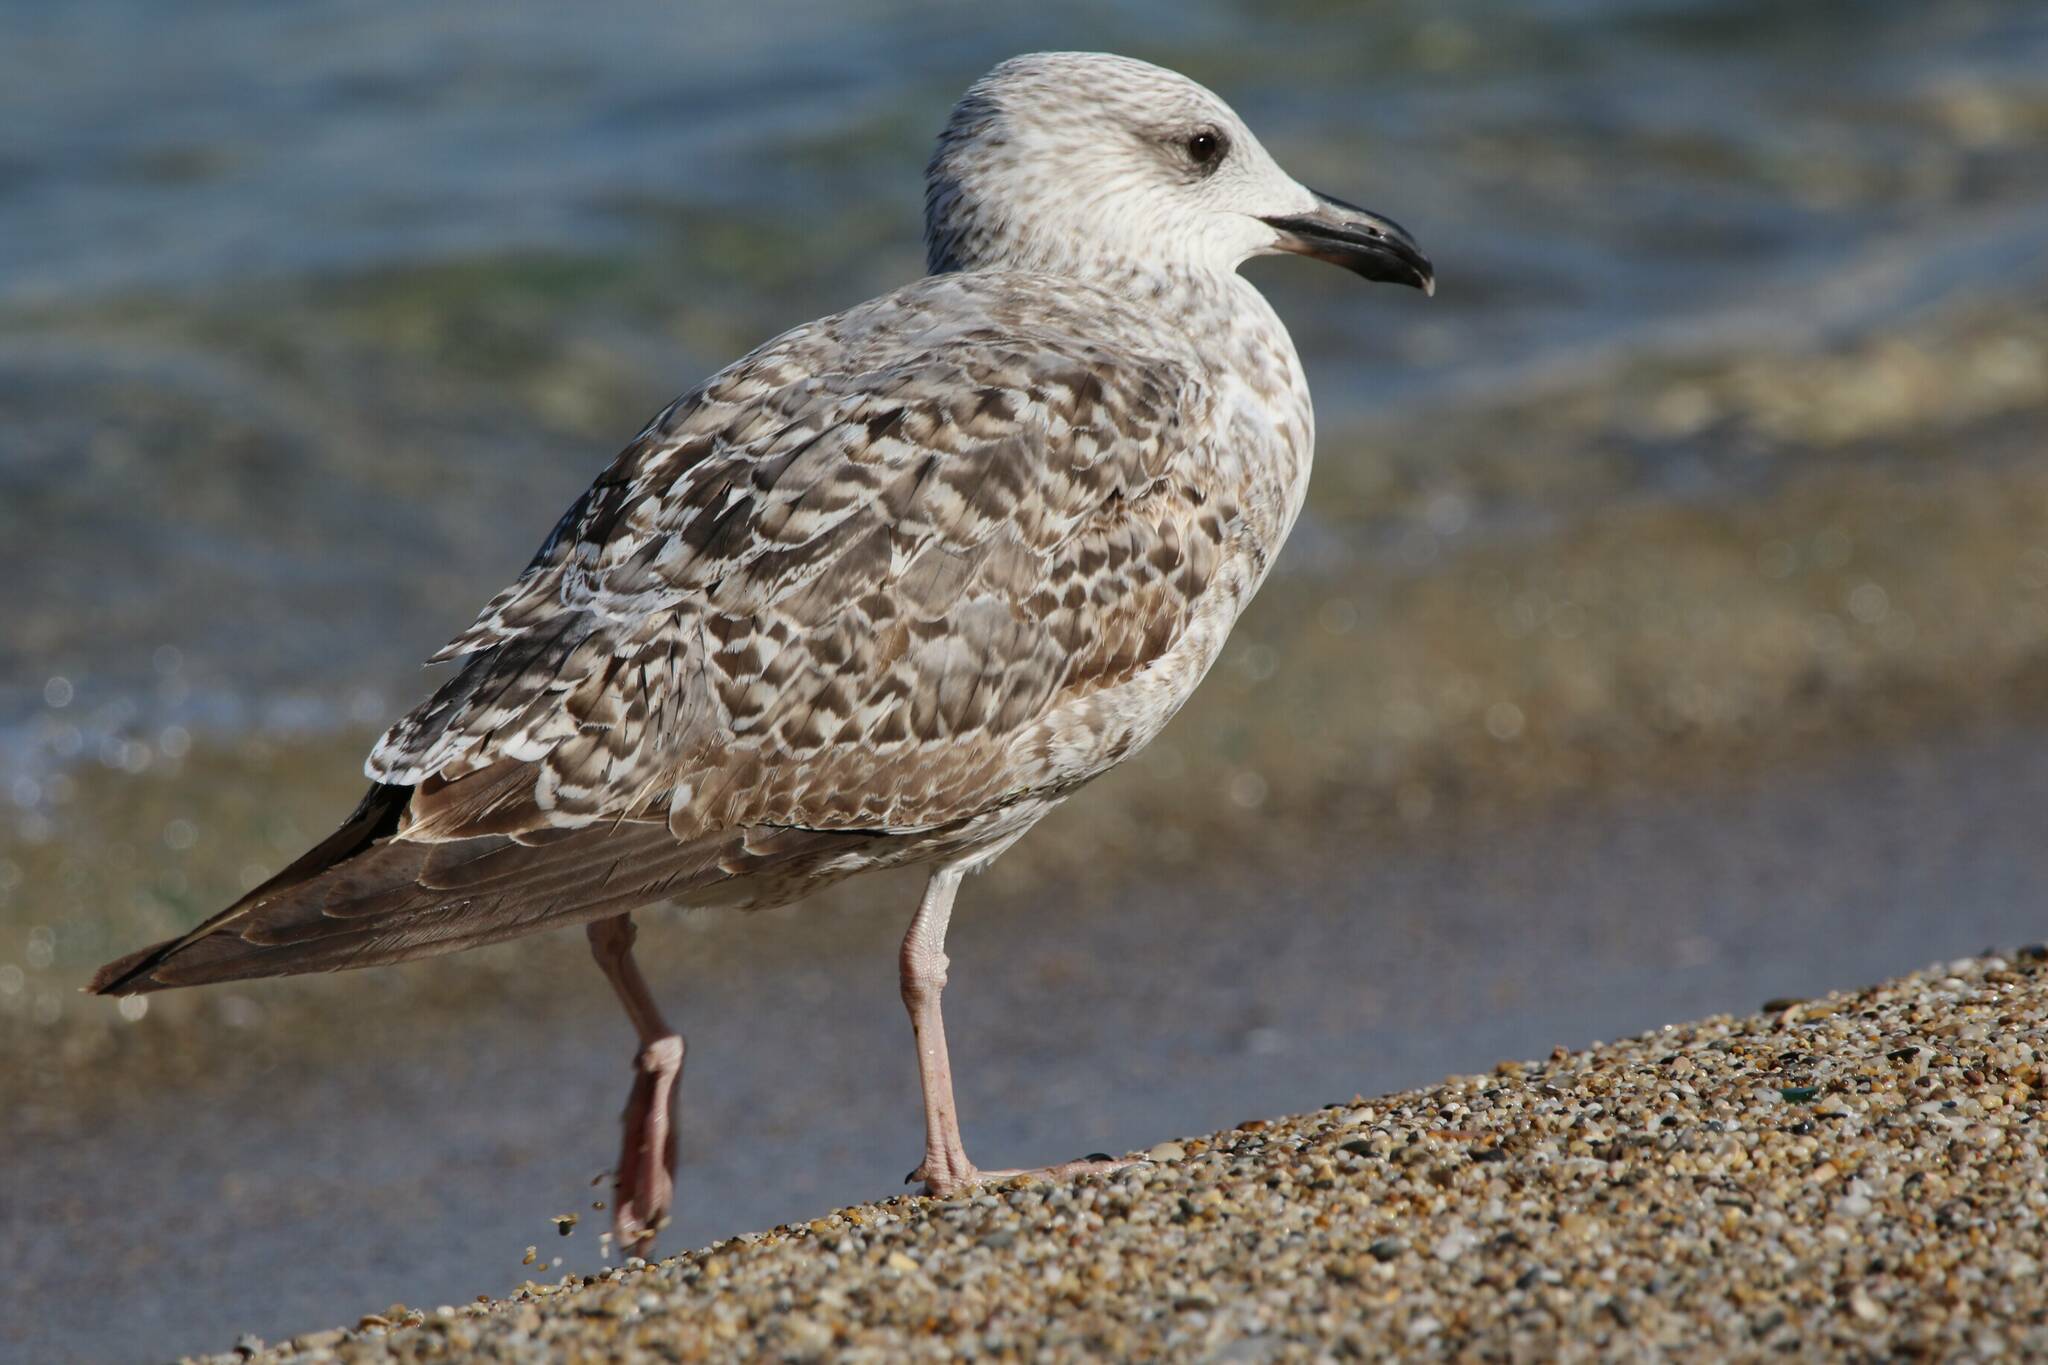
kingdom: Animalia
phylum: Chordata
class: Aves
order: Charadriiformes
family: Laridae
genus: Larus
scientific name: Larus michahellis
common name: Yellow-legged gull
